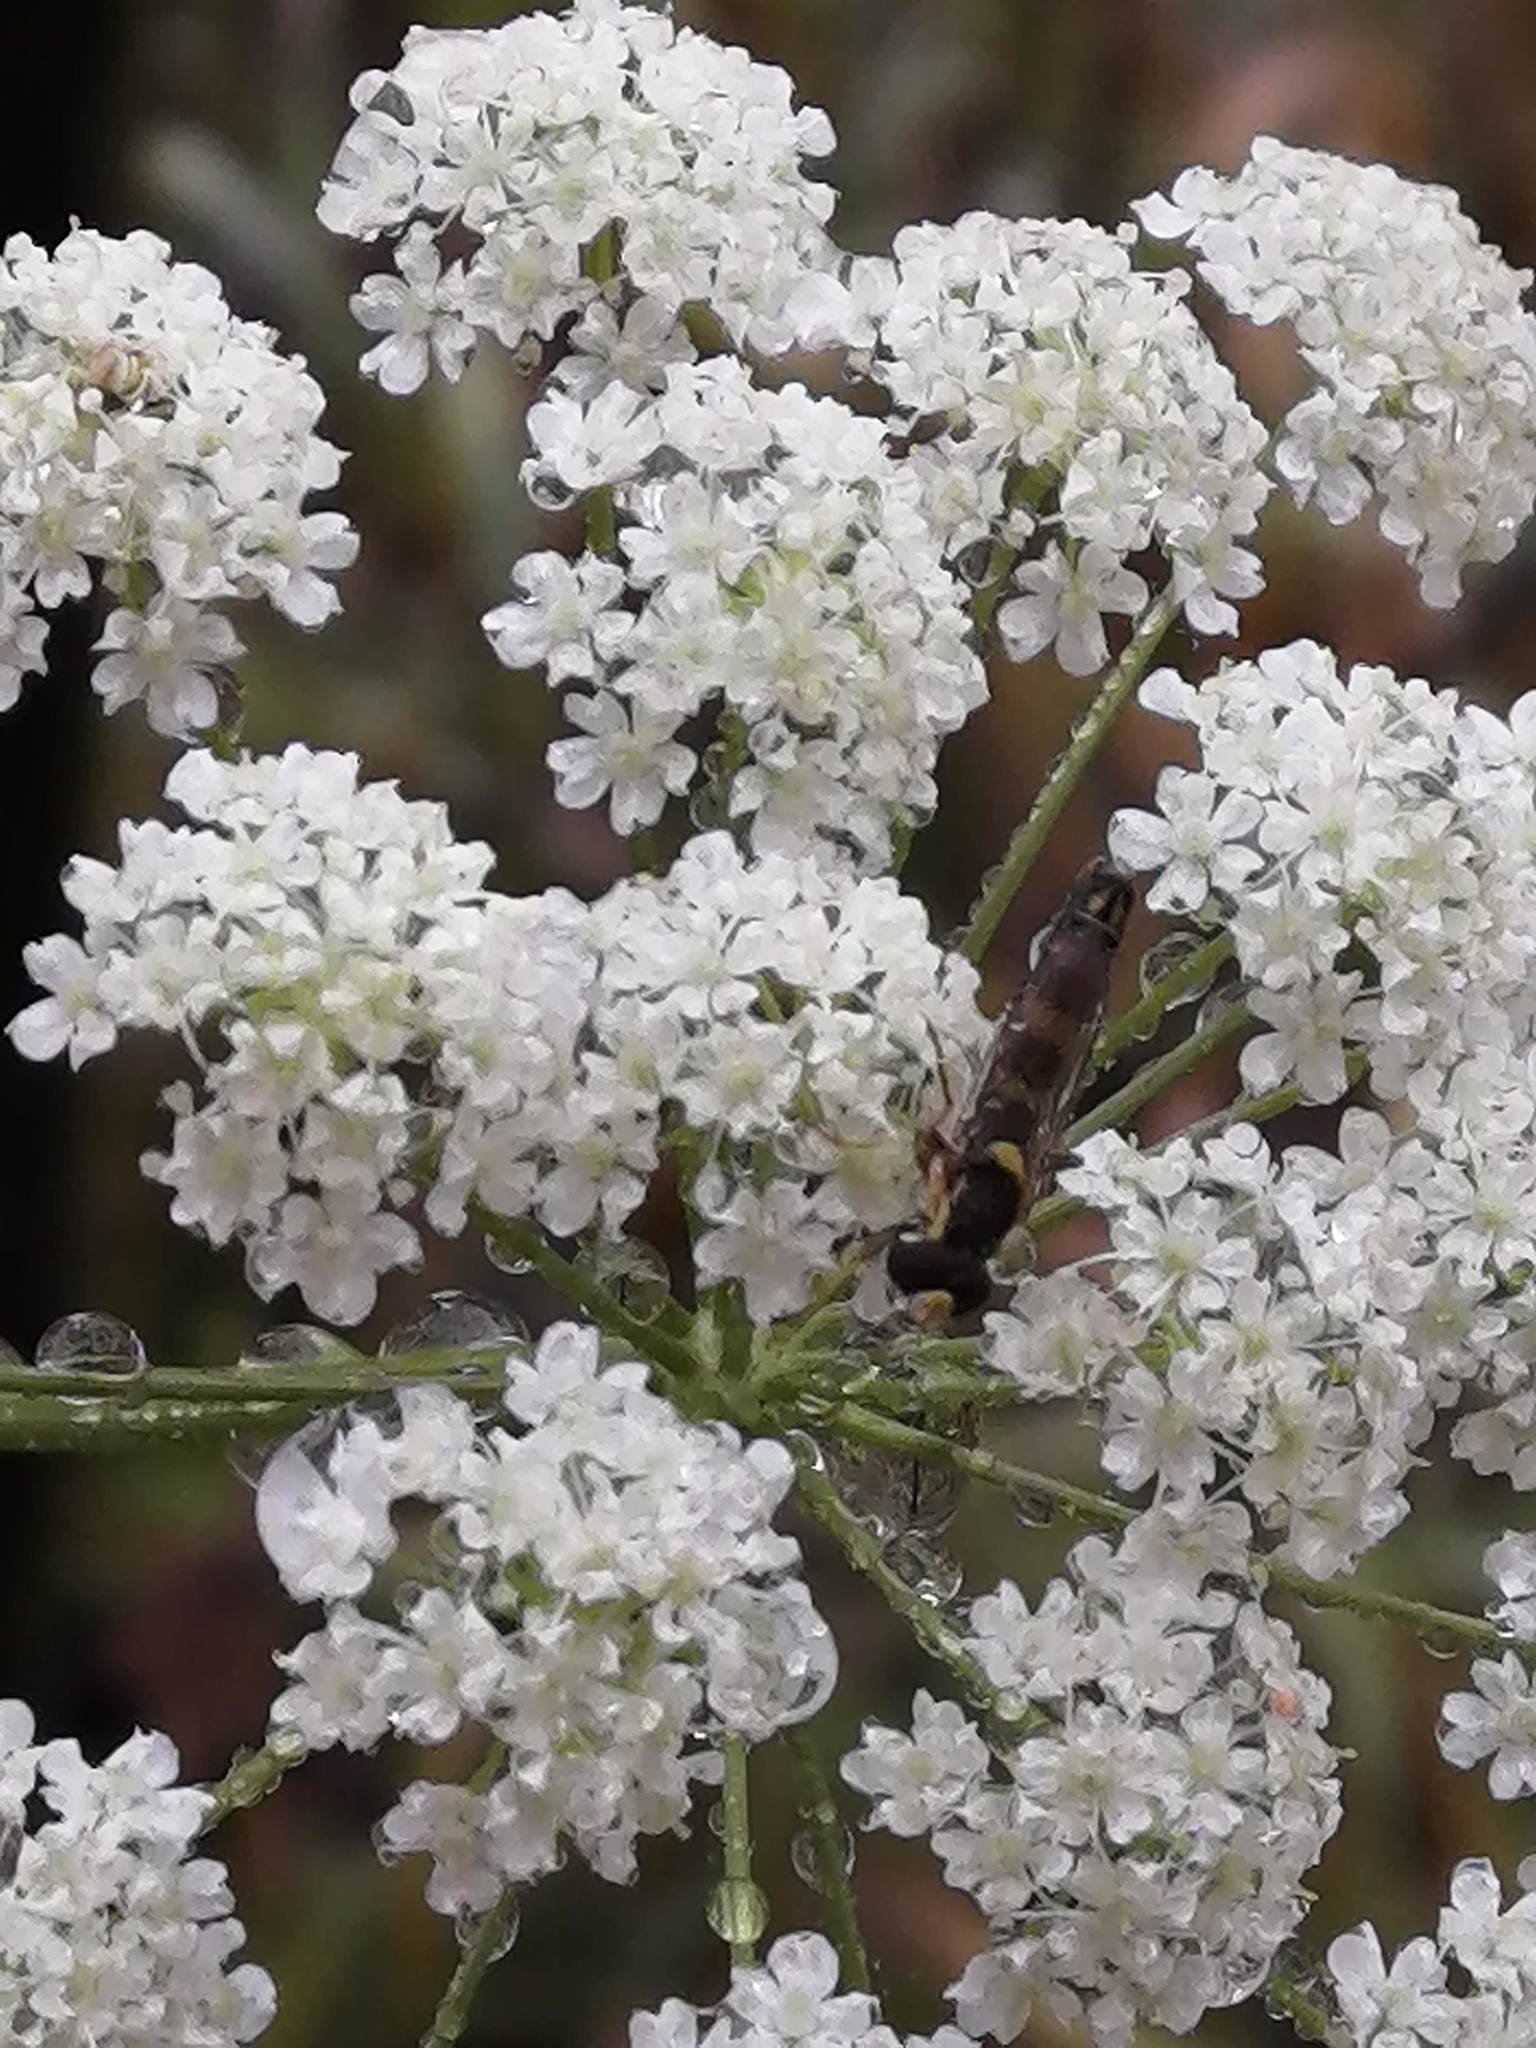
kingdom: Plantae
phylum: Tracheophyta
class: Magnoliopsida
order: Apiales
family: Apiaceae
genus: Pimpinella
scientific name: Pimpinella saxifraga
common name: Burnet-saxifrage
